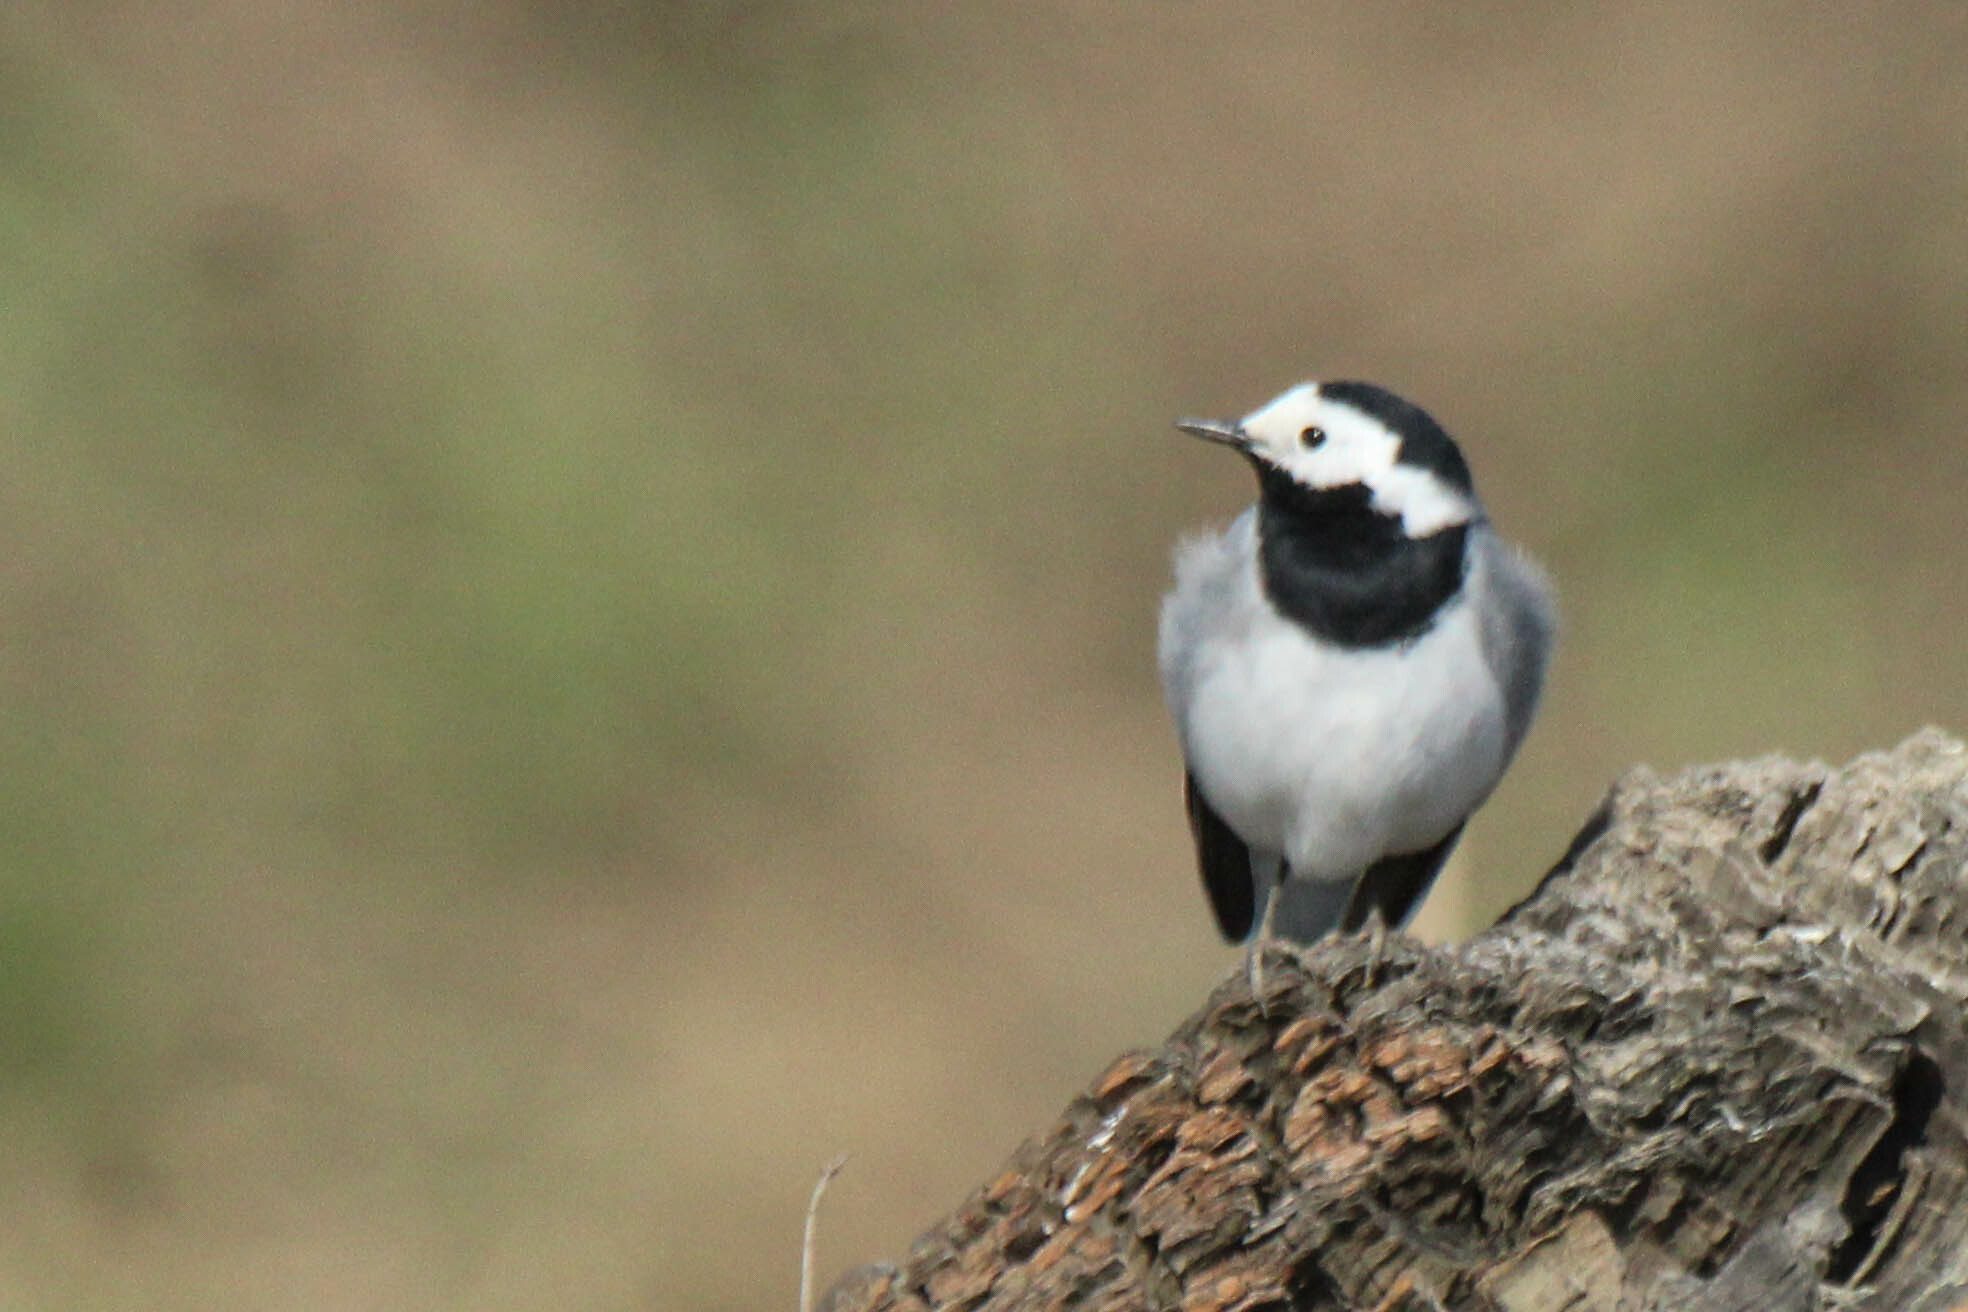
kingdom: Animalia
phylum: Chordata
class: Aves
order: Passeriformes
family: Motacillidae
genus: Motacilla
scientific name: Motacilla alba
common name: White wagtail
